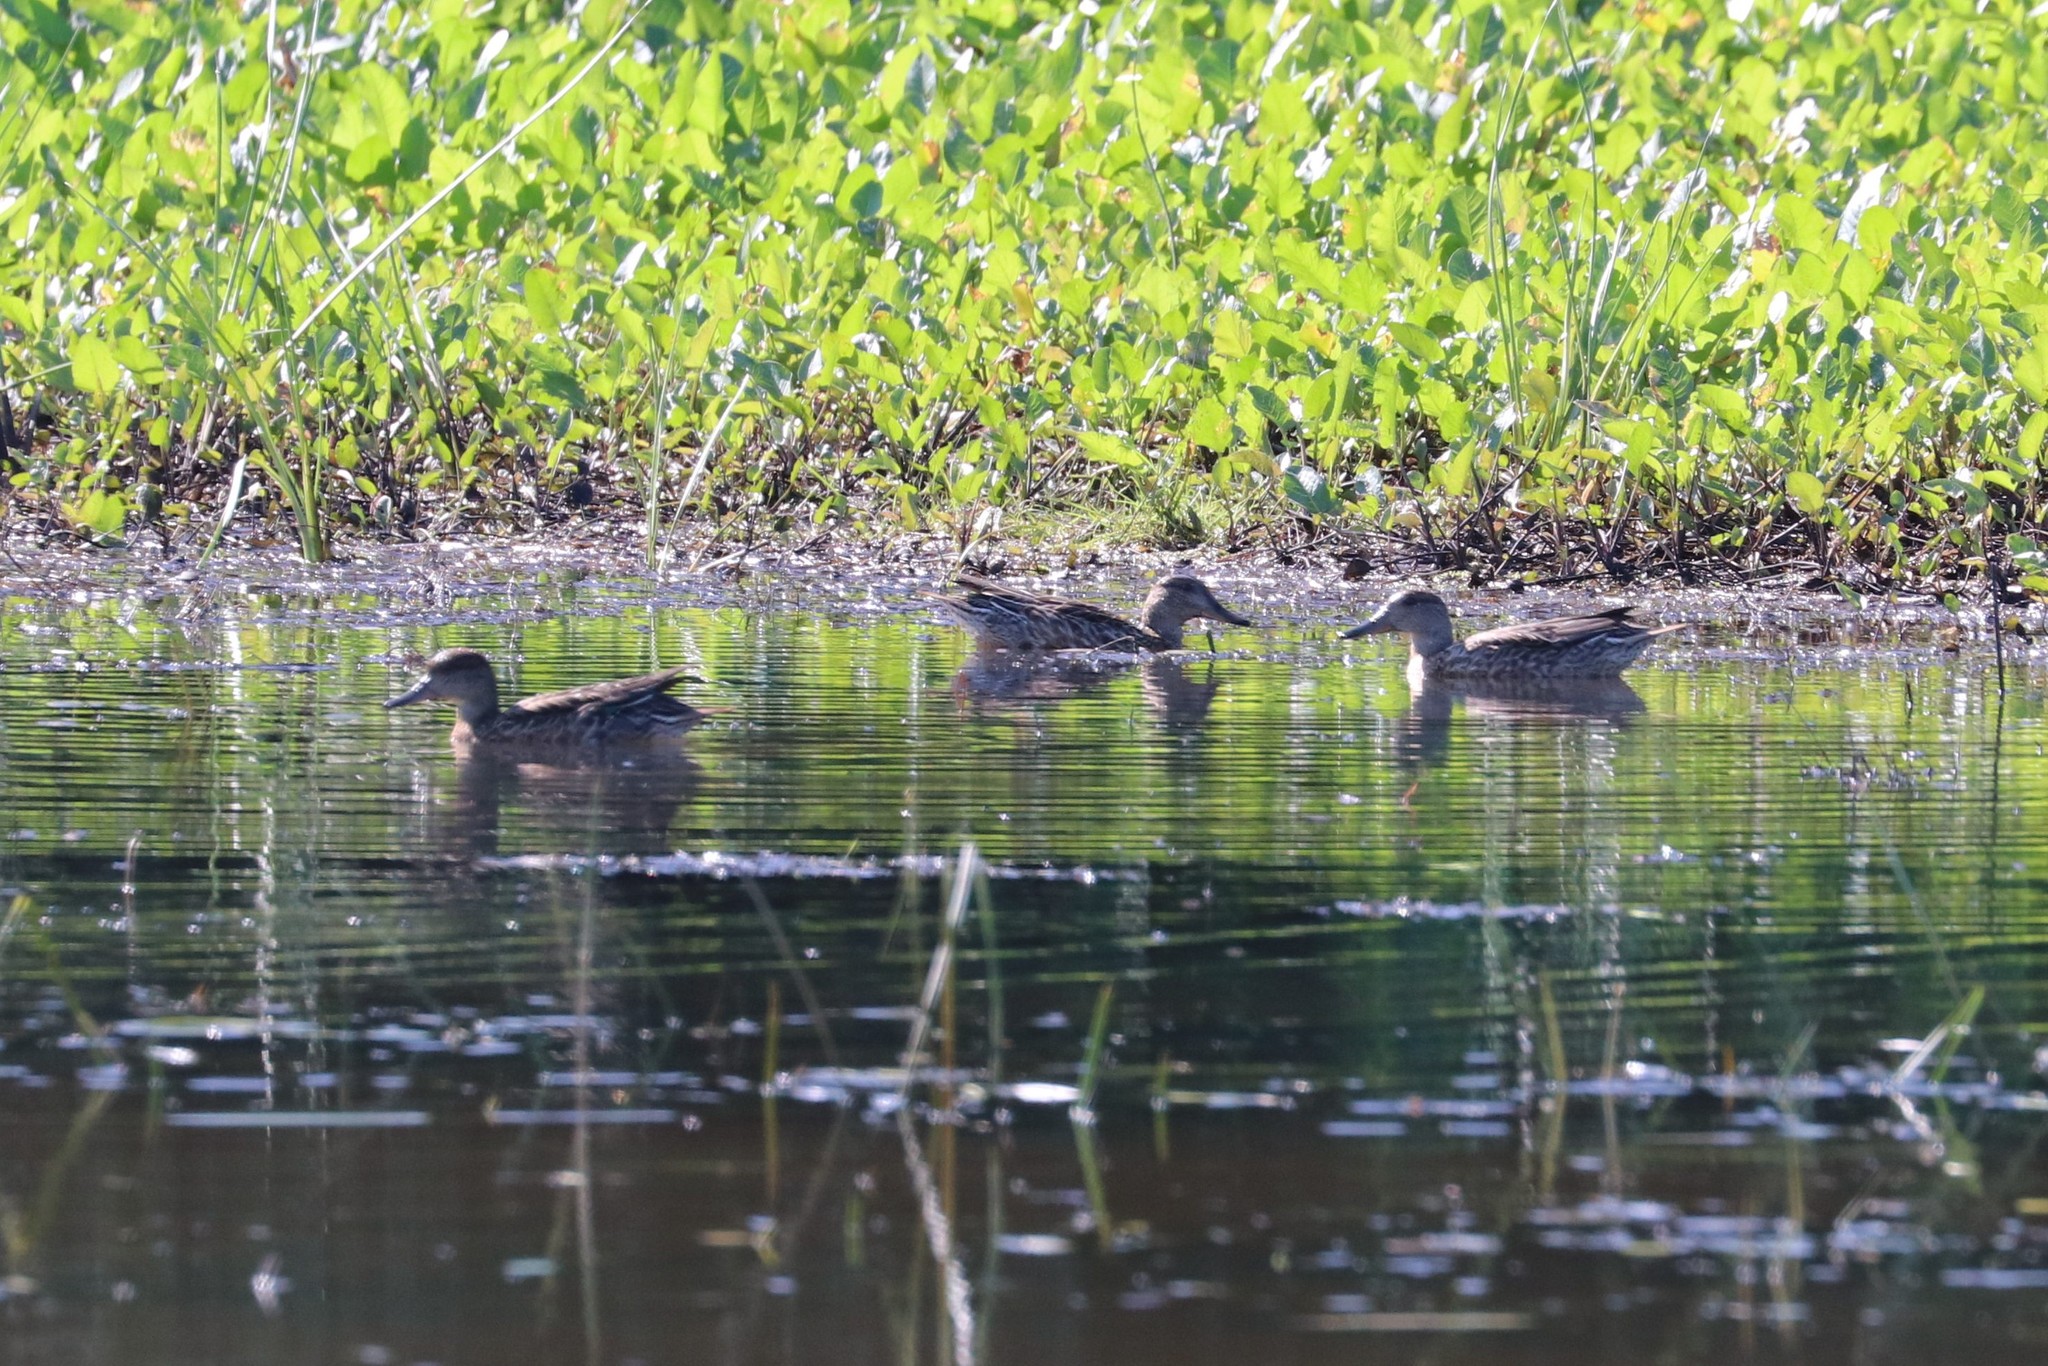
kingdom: Animalia
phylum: Chordata
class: Aves
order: Anseriformes
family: Anatidae
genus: Anas
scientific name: Anas crecca
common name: Eurasian teal
